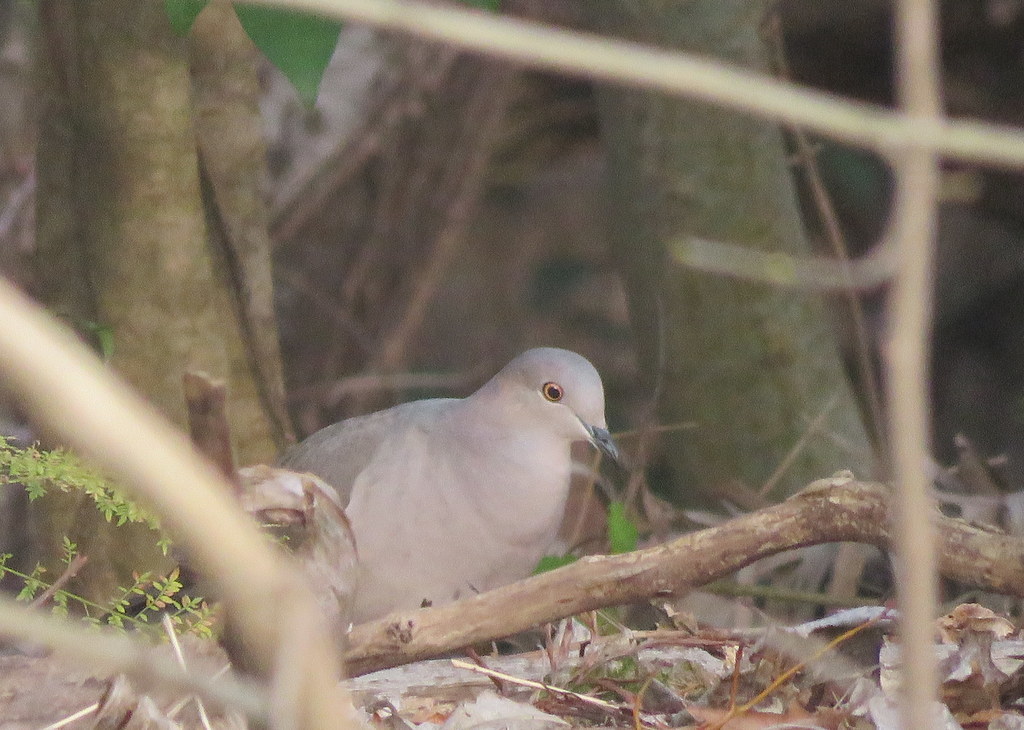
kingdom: Animalia
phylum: Chordata
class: Aves
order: Columbiformes
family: Columbidae
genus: Leptotila
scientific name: Leptotila verreauxi
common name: White-tipped dove
